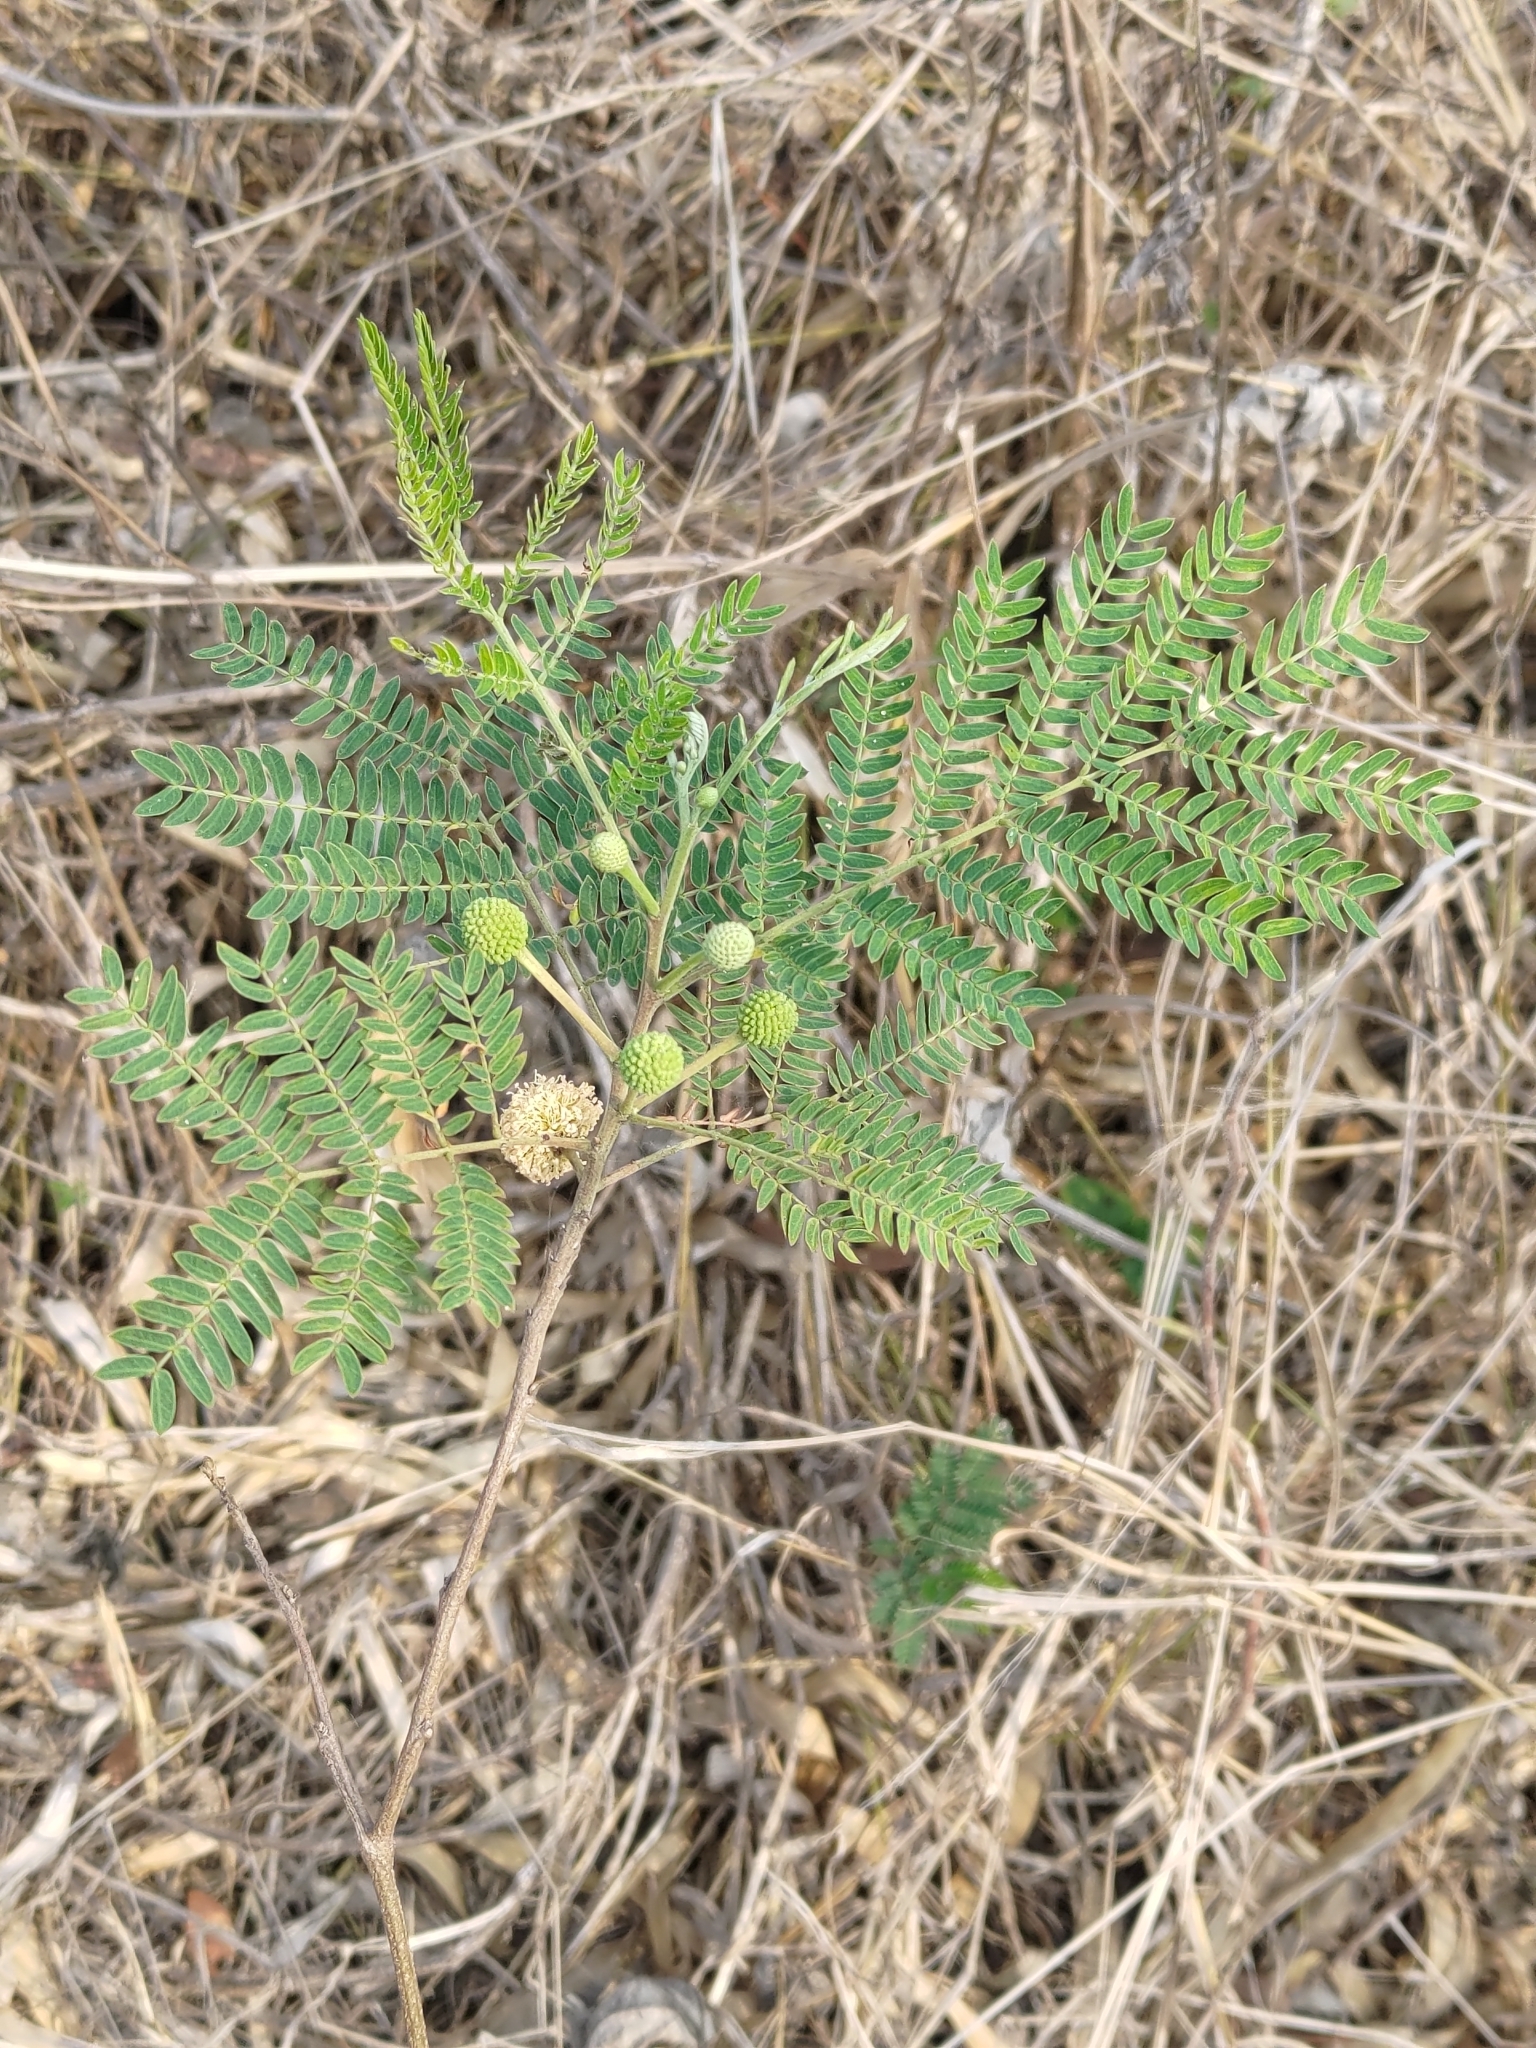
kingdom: Plantae
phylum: Tracheophyta
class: Magnoliopsida
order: Fabales
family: Fabaceae
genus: Leucaena
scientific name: Leucaena leucocephala
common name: White leadtree
